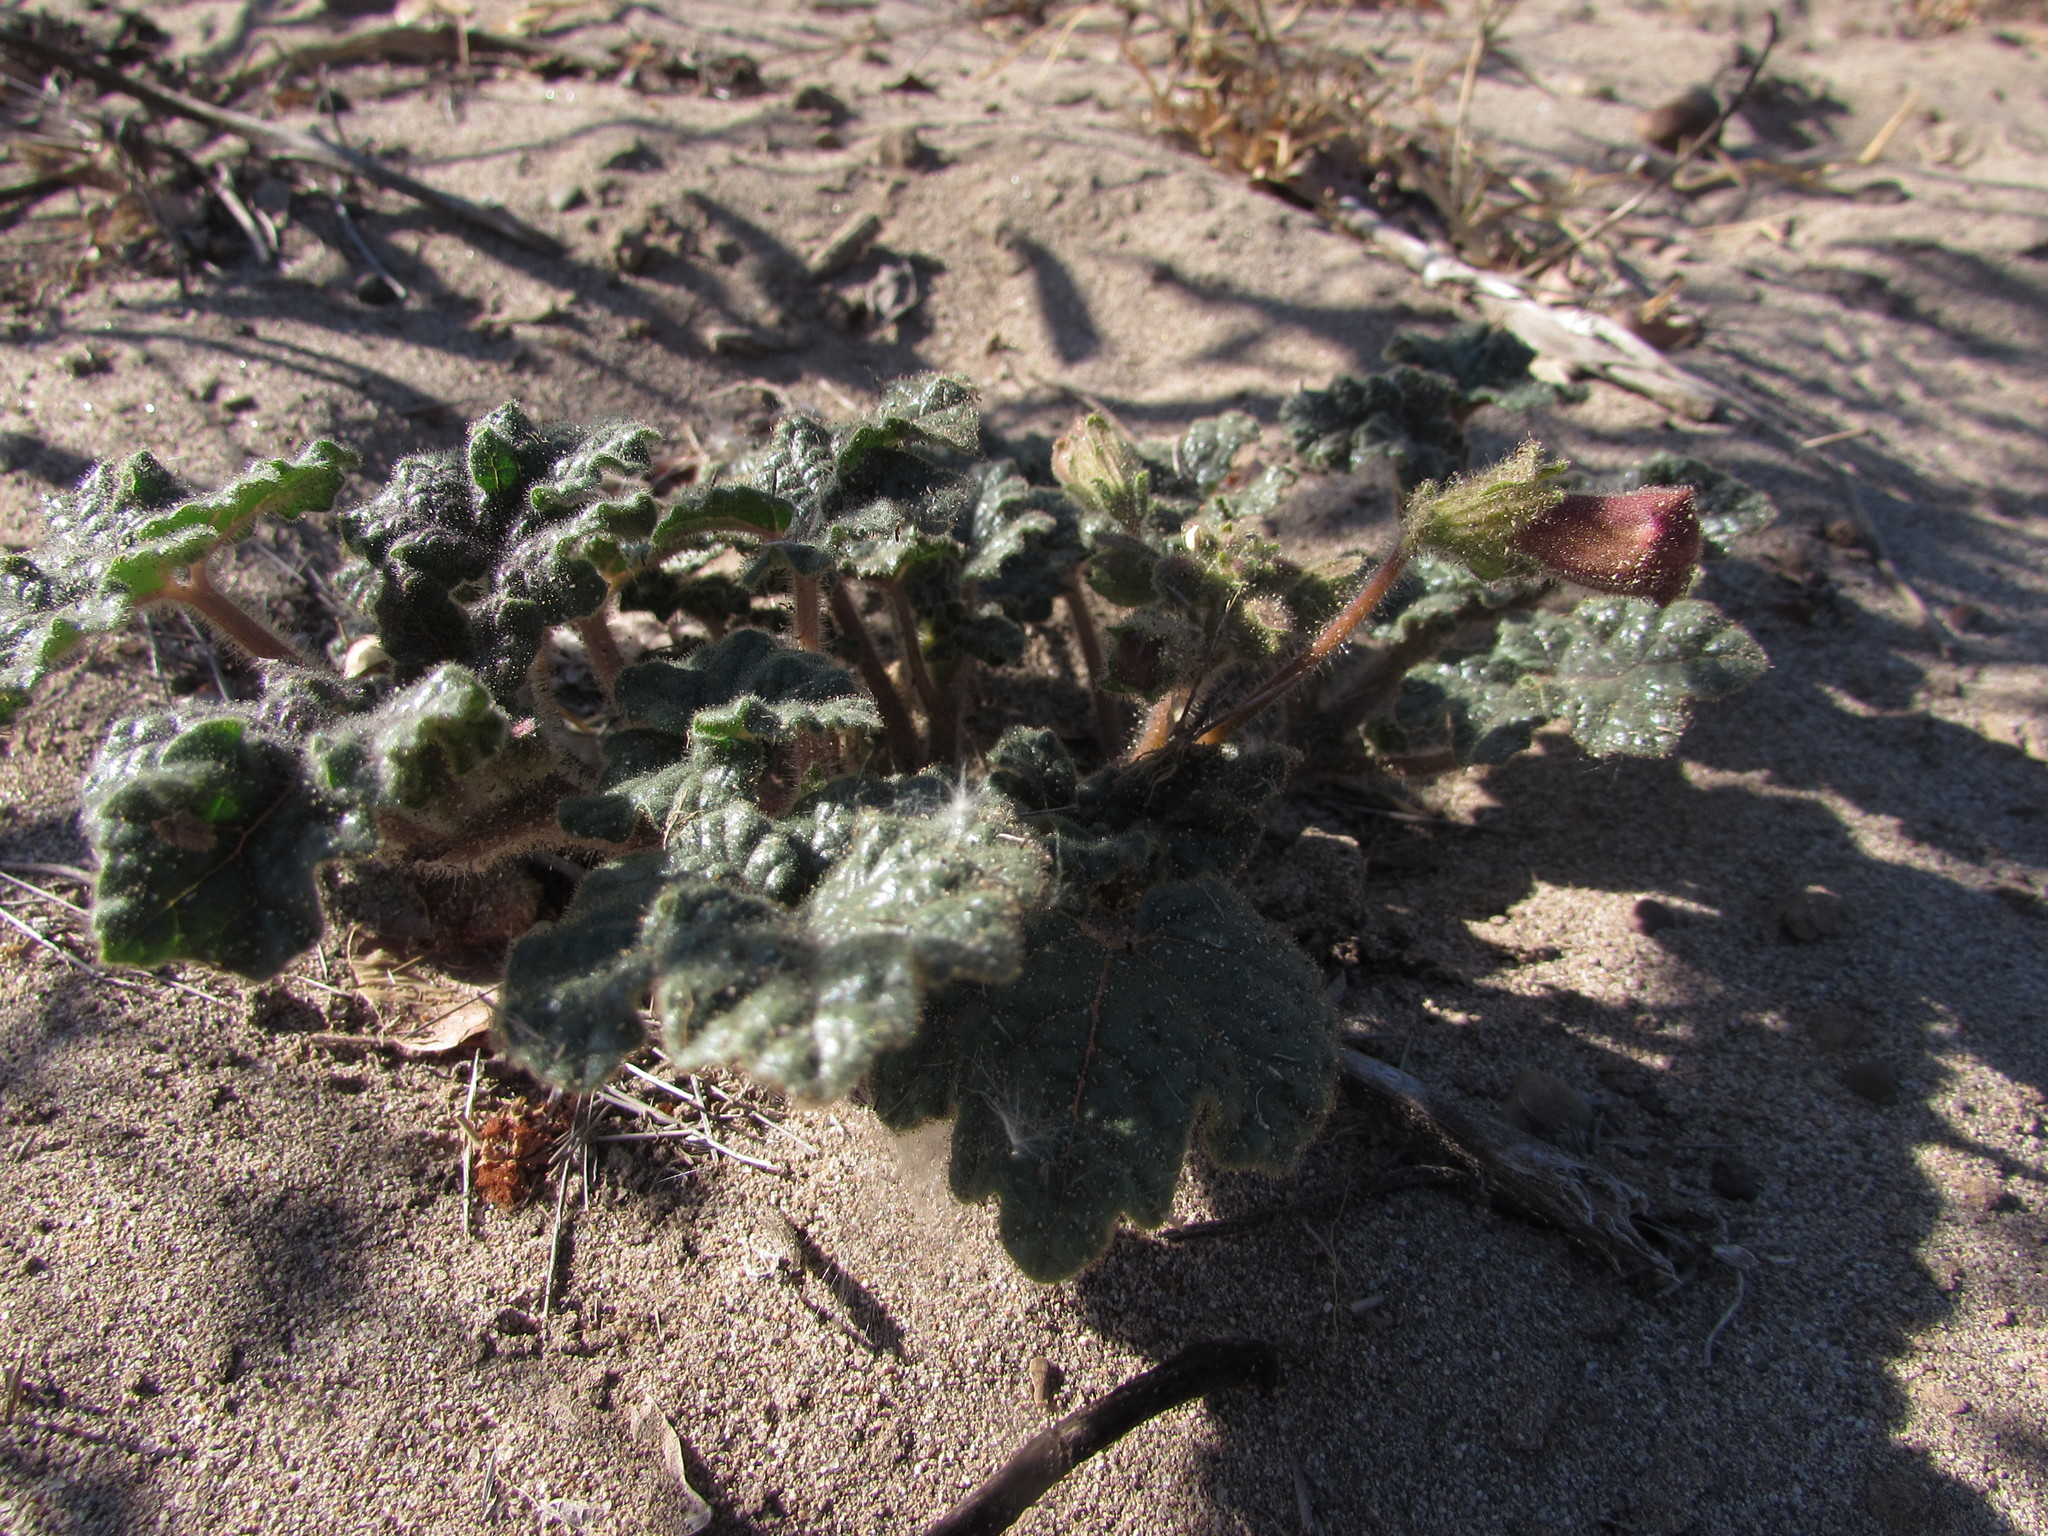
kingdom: Plantae
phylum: Tracheophyta
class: Magnoliopsida
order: Lamiales
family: Martyniaceae
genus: Proboscidea
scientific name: Proboscidea louisianica
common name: Elephant tusks
